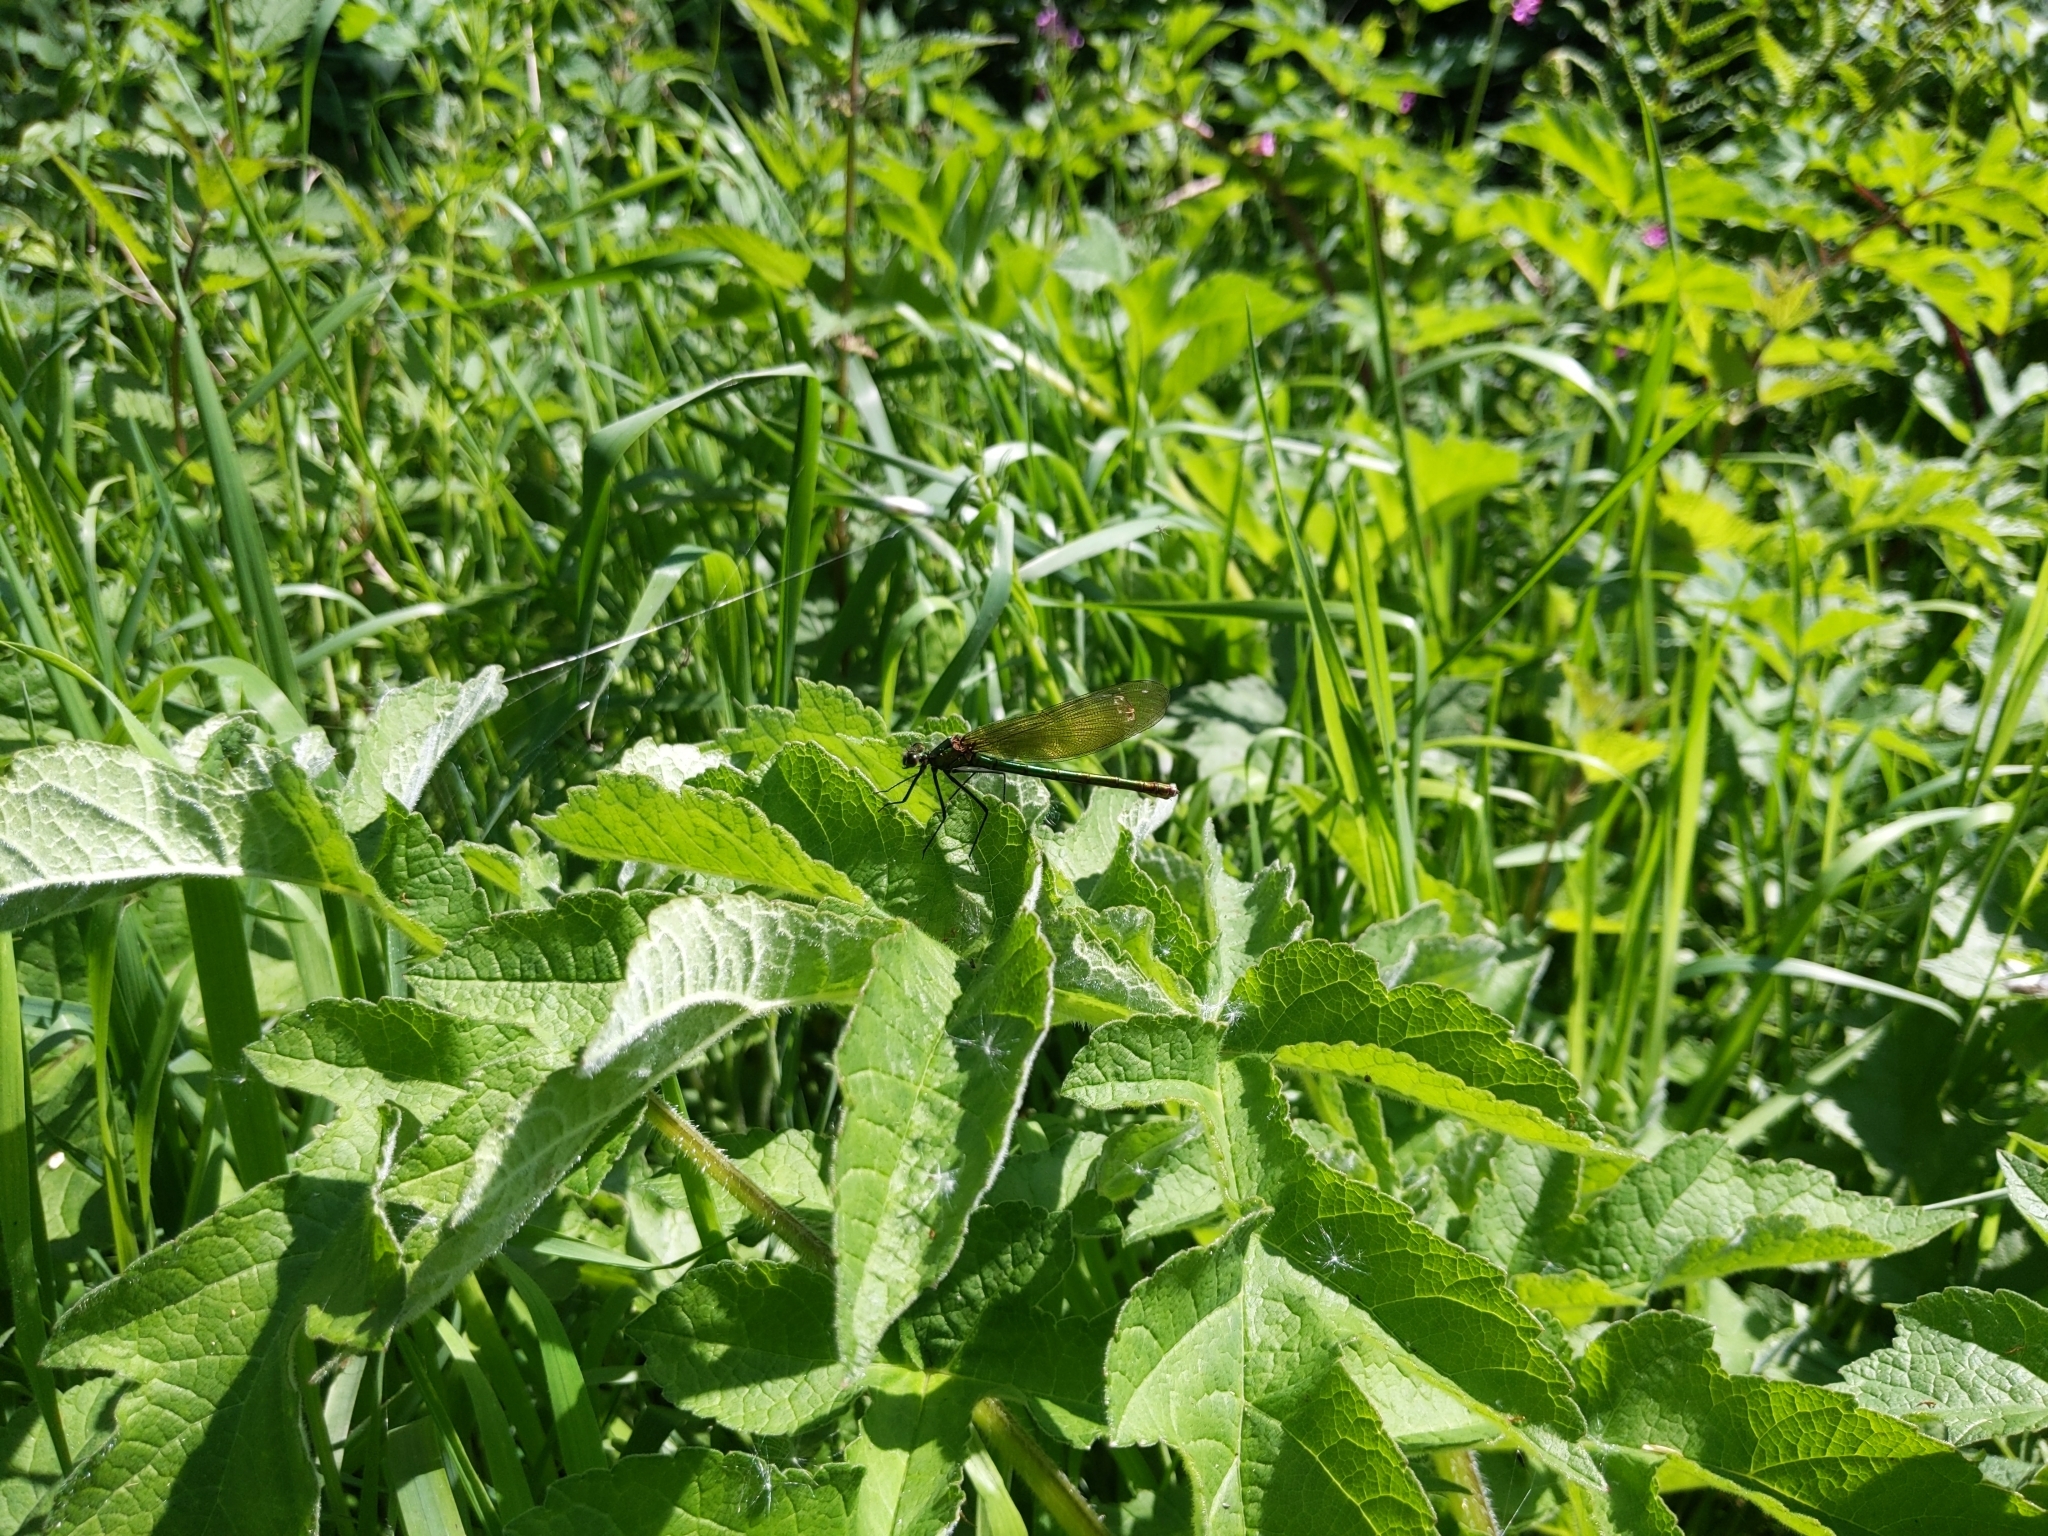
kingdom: Animalia
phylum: Arthropoda
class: Insecta
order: Odonata
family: Calopterygidae
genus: Calopteryx
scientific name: Calopteryx splendens
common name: Banded demoiselle
